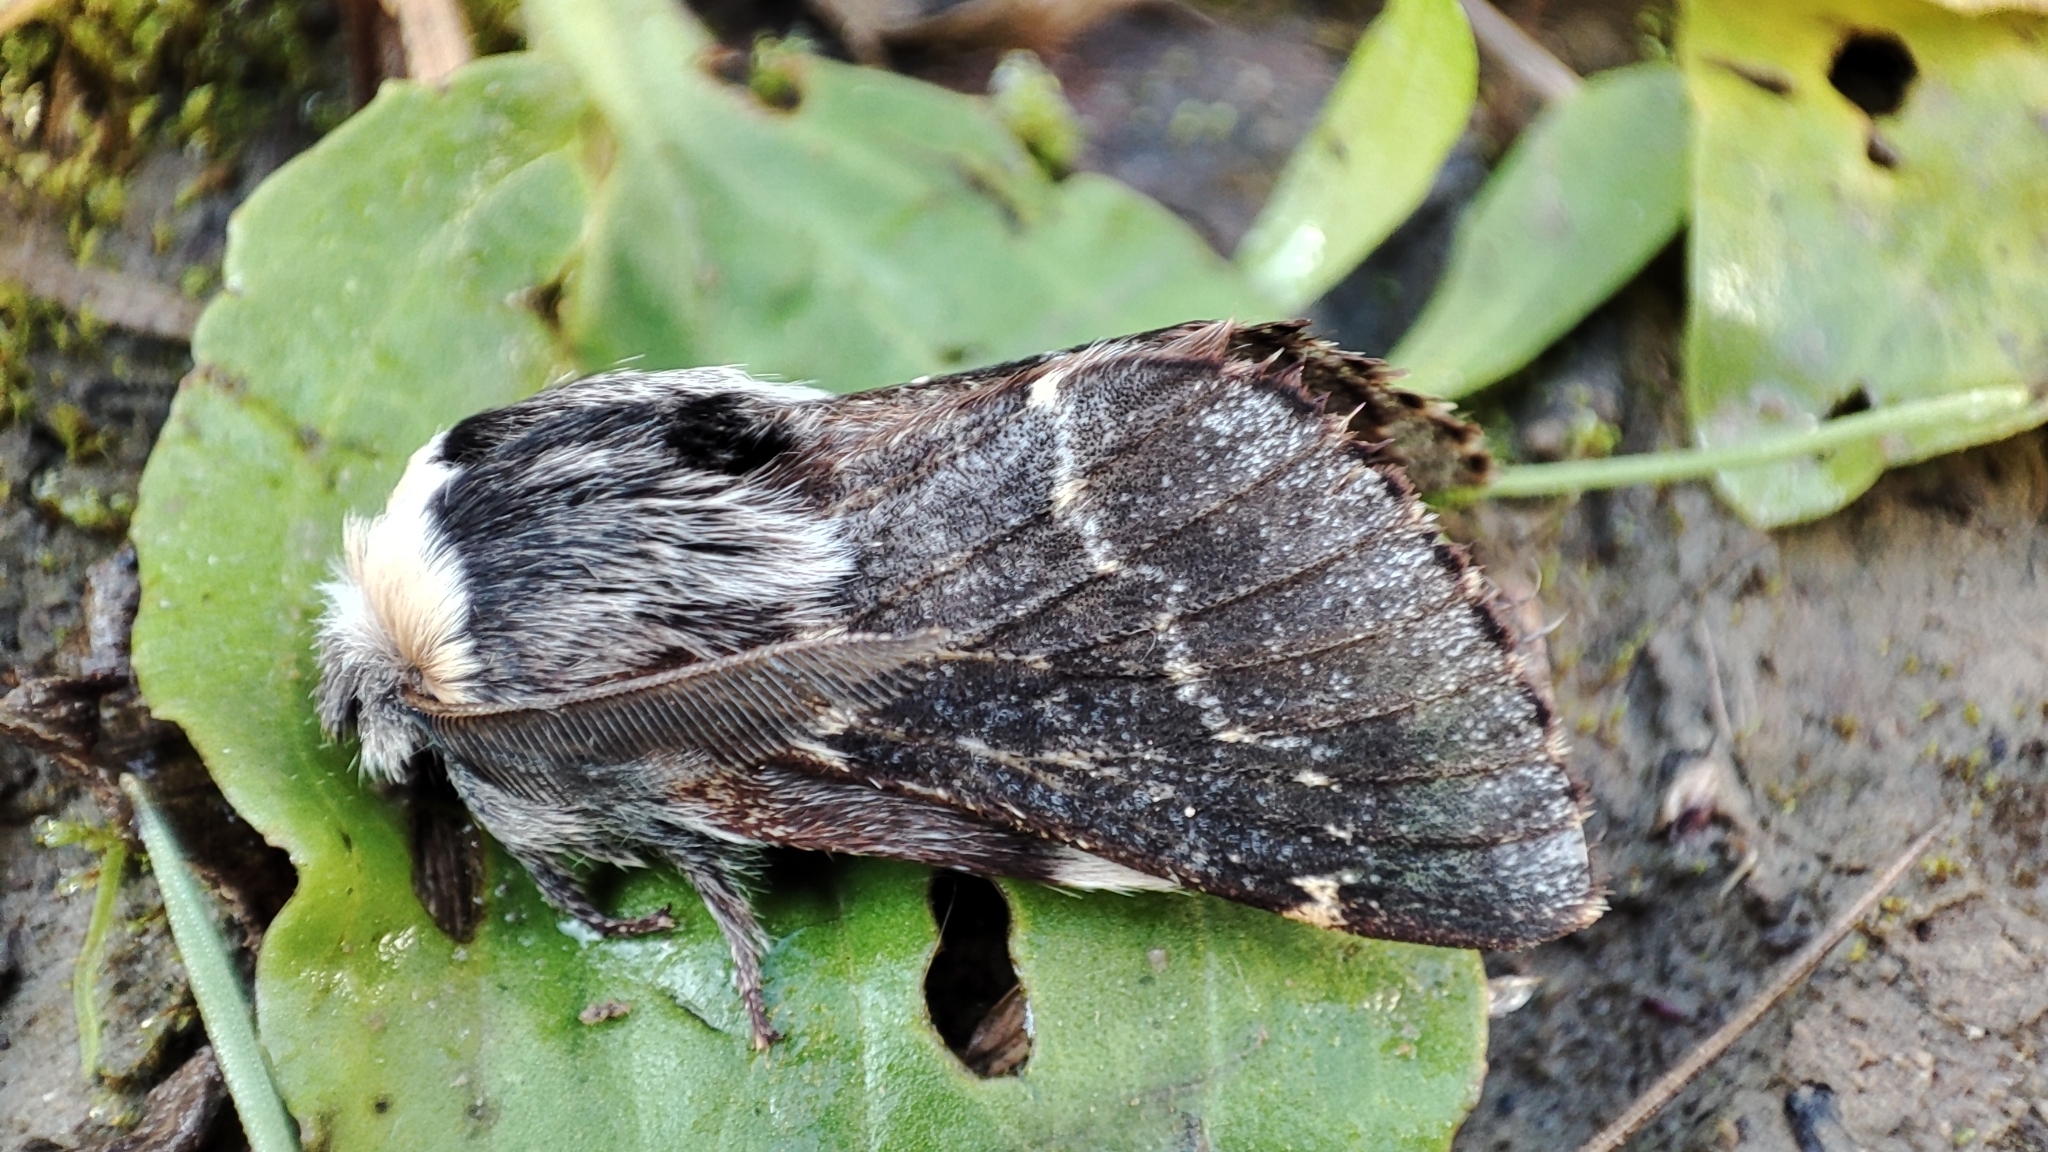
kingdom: Animalia
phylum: Arthropoda
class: Insecta
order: Lepidoptera
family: Lasiocampidae
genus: Poecilocampa
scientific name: Poecilocampa populi
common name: December moth
